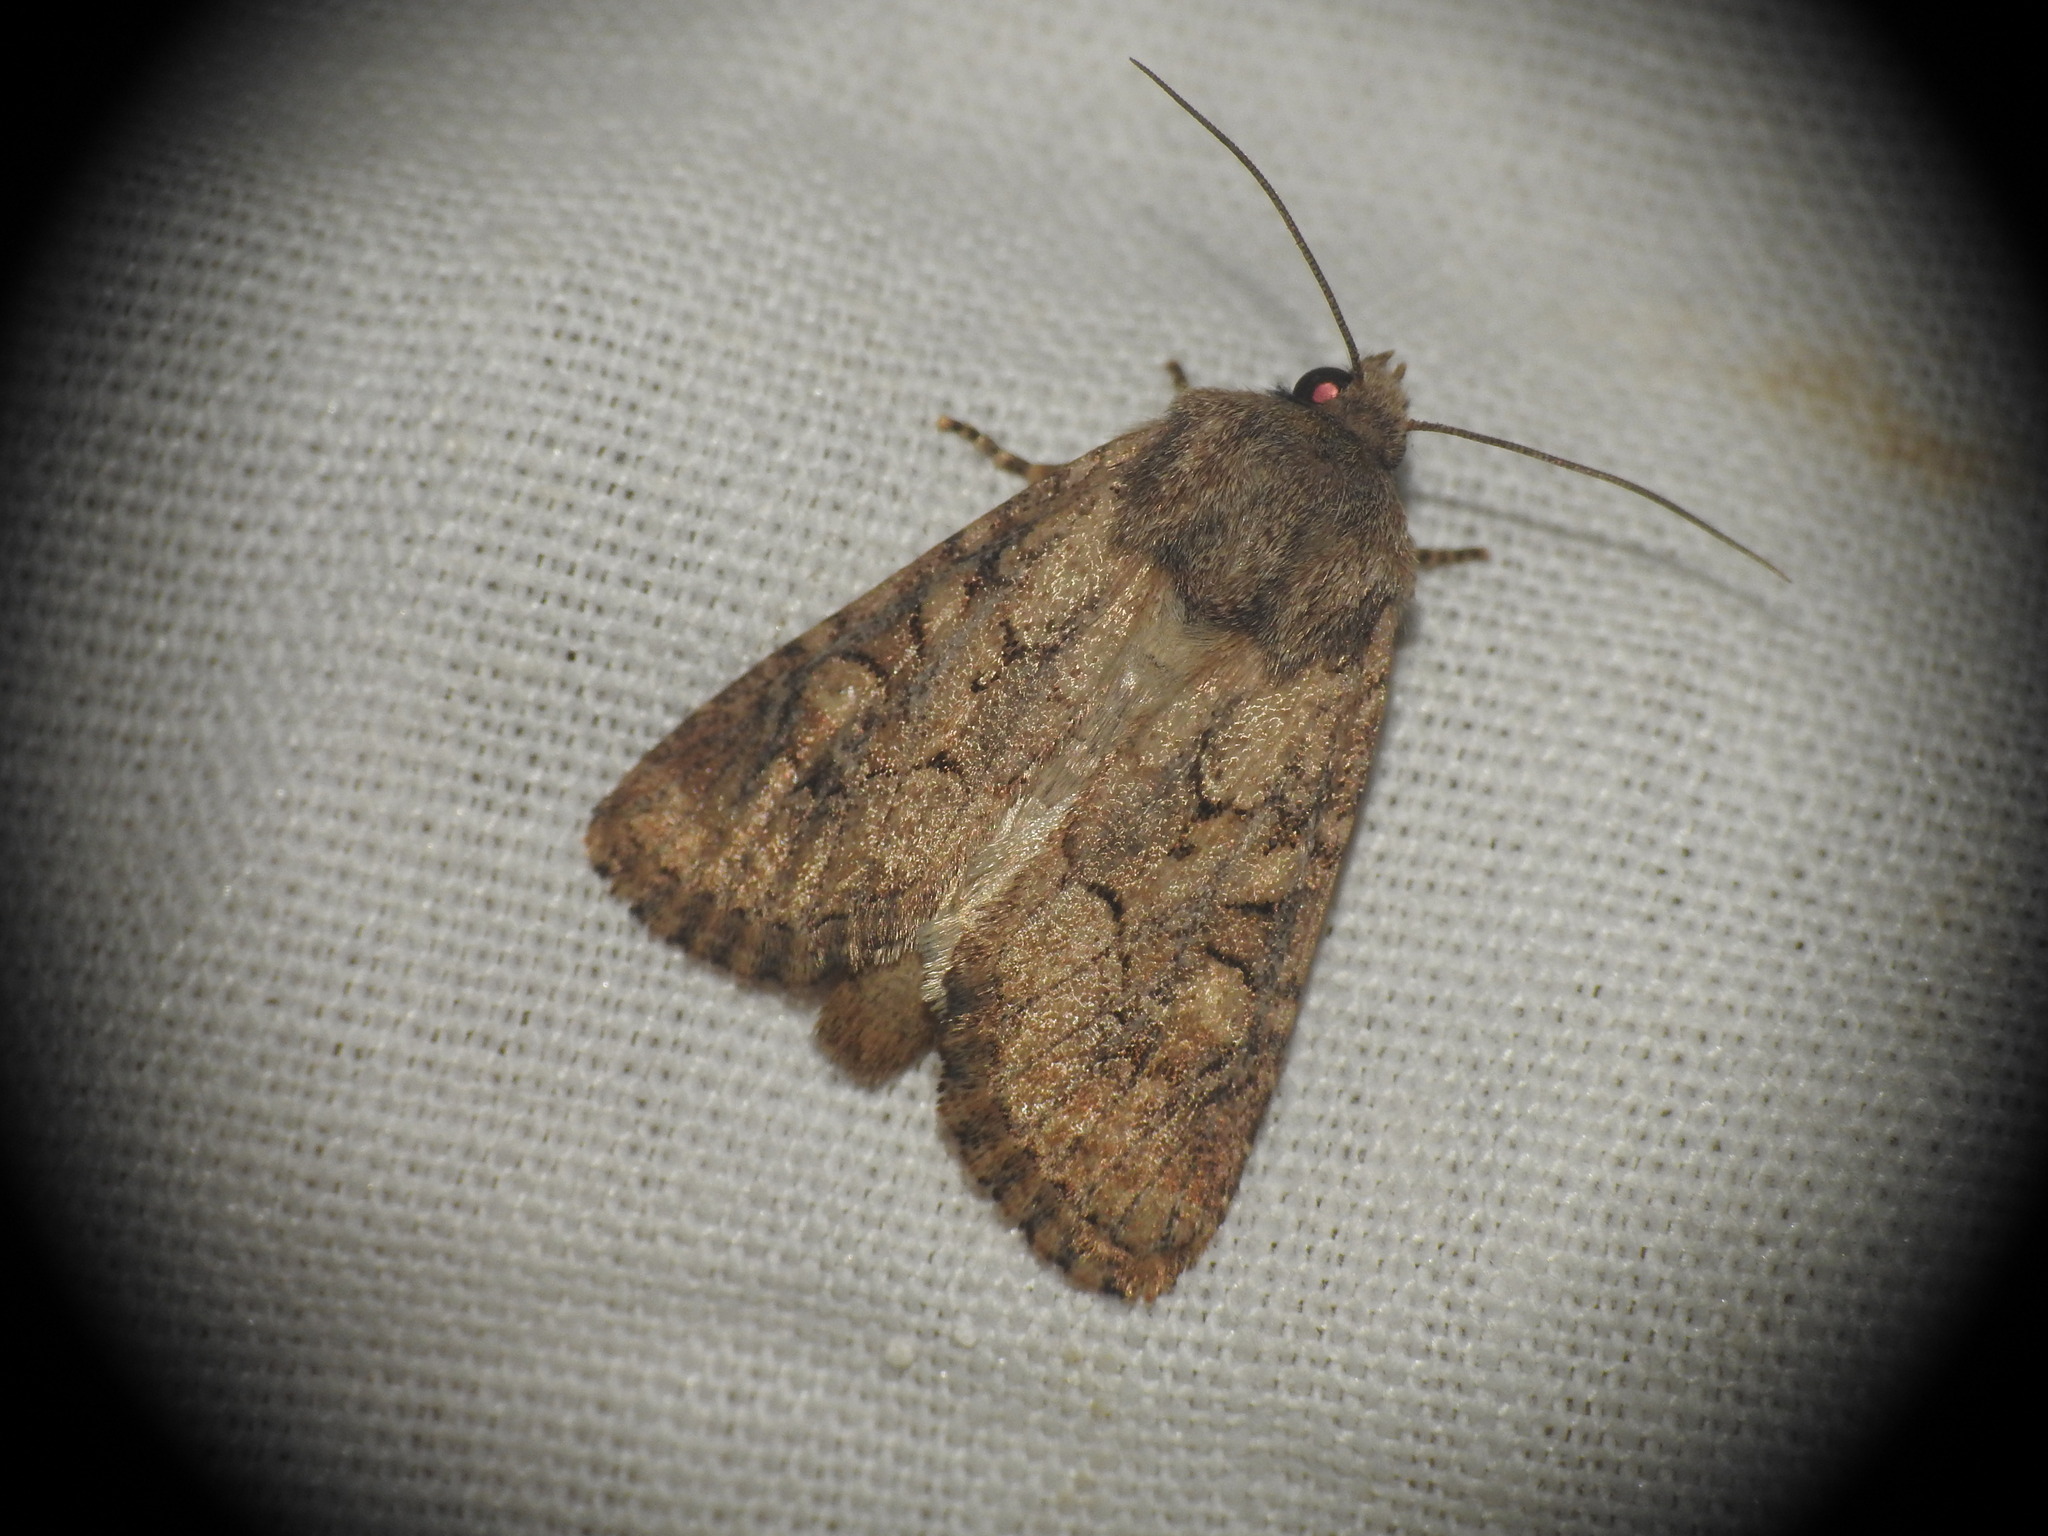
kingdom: Animalia
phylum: Arthropoda
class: Insecta
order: Lepidoptera
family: Noctuidae
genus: Luperina
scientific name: Luperina testacea
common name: Flounced rustic
